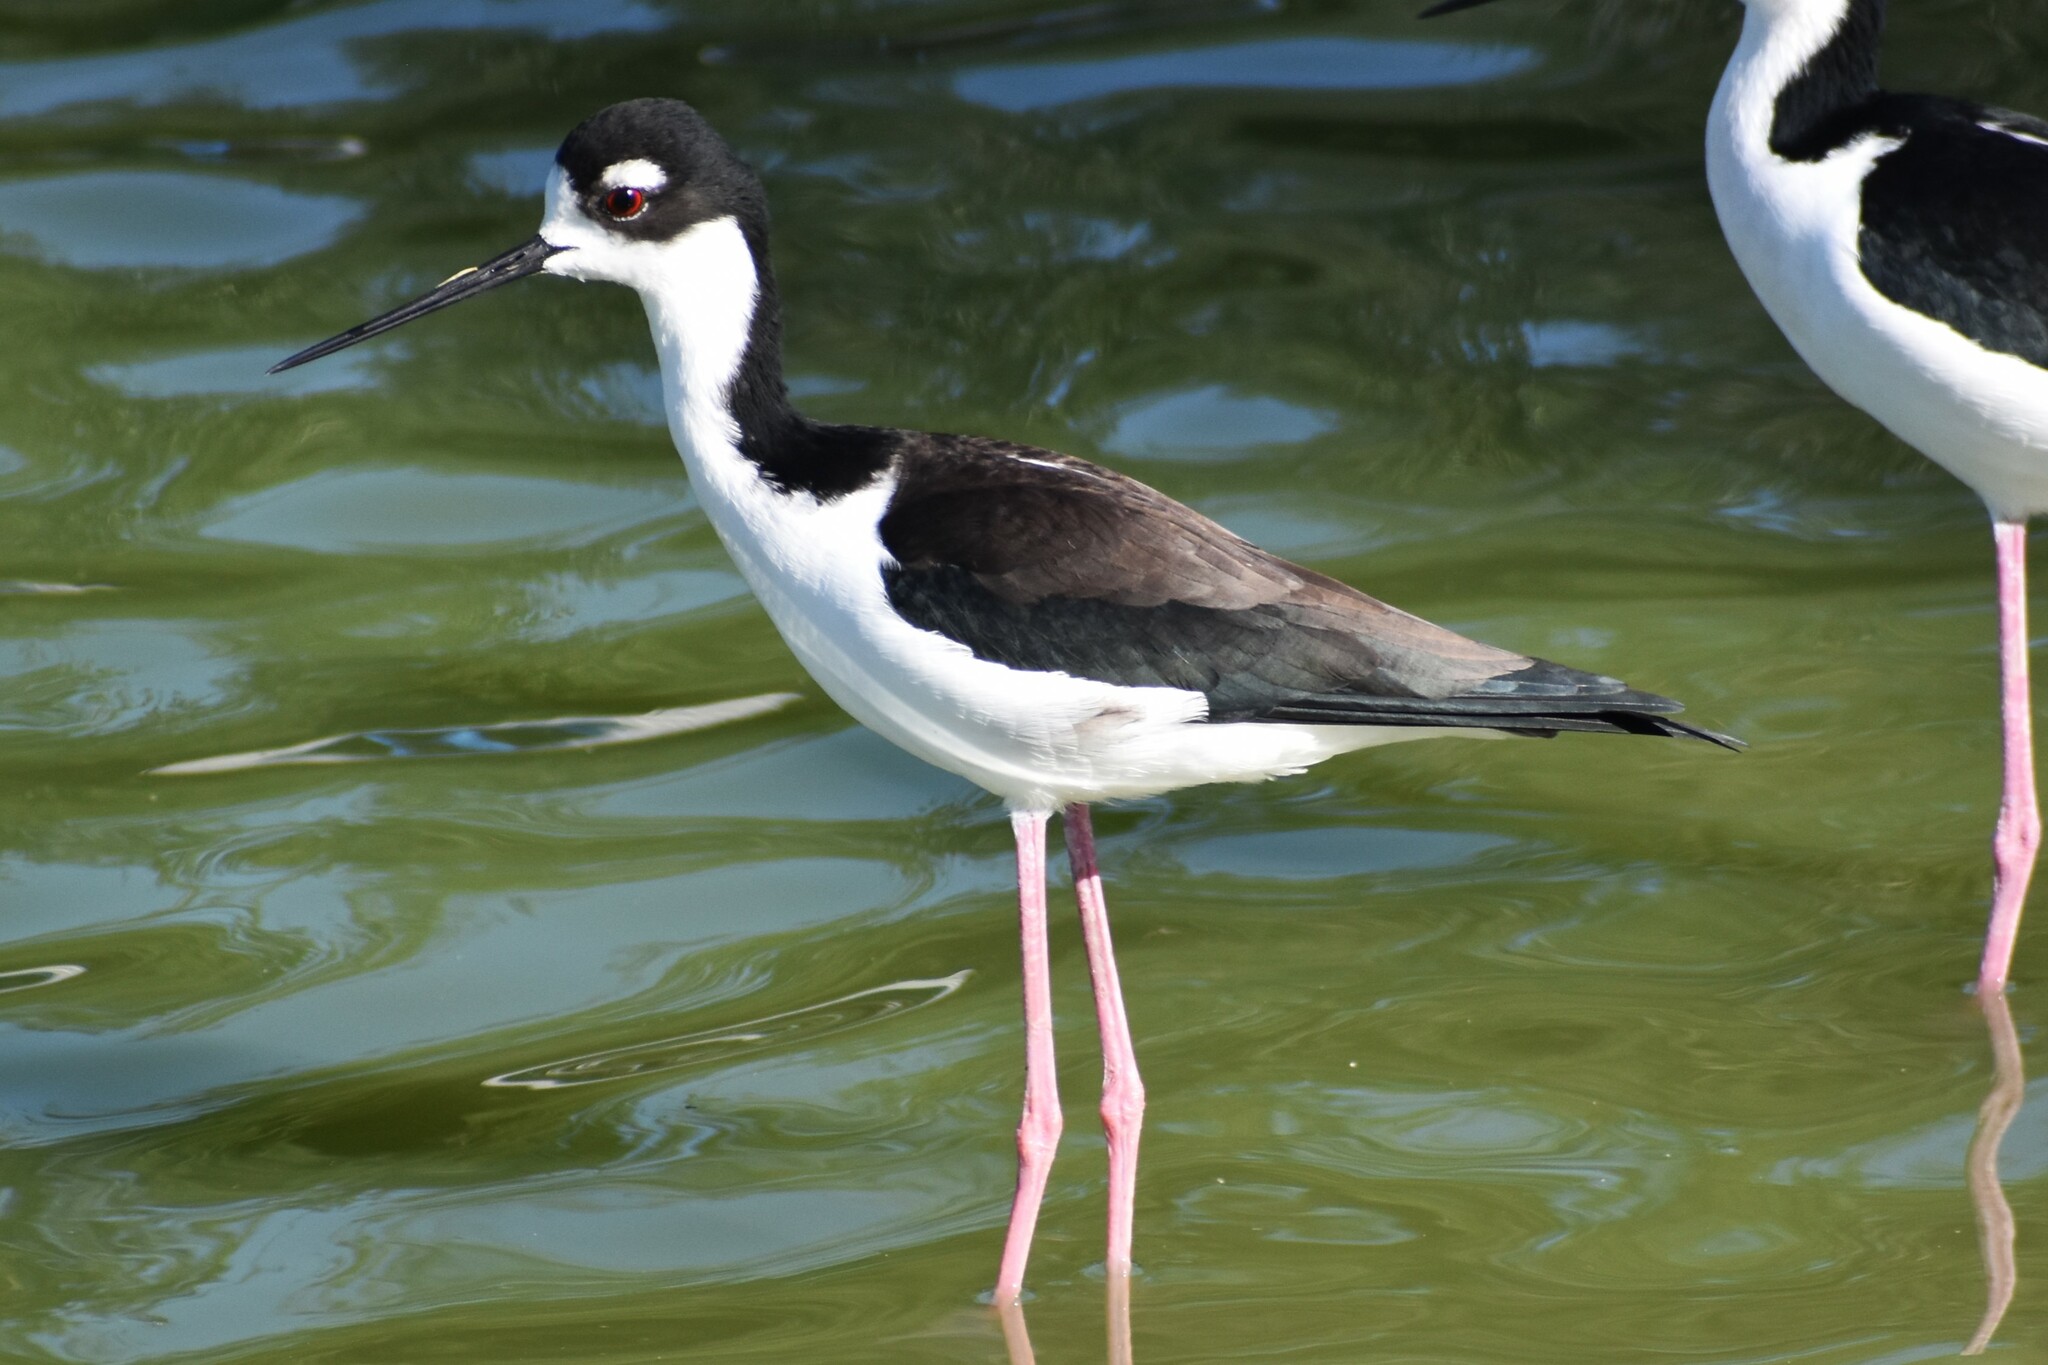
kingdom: Animalia
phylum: Chordata
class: Aves
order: Charadriiformes
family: Recurvirostridae
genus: Himantopus
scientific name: Himantopus mexicanus
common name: Black-necked stilt
